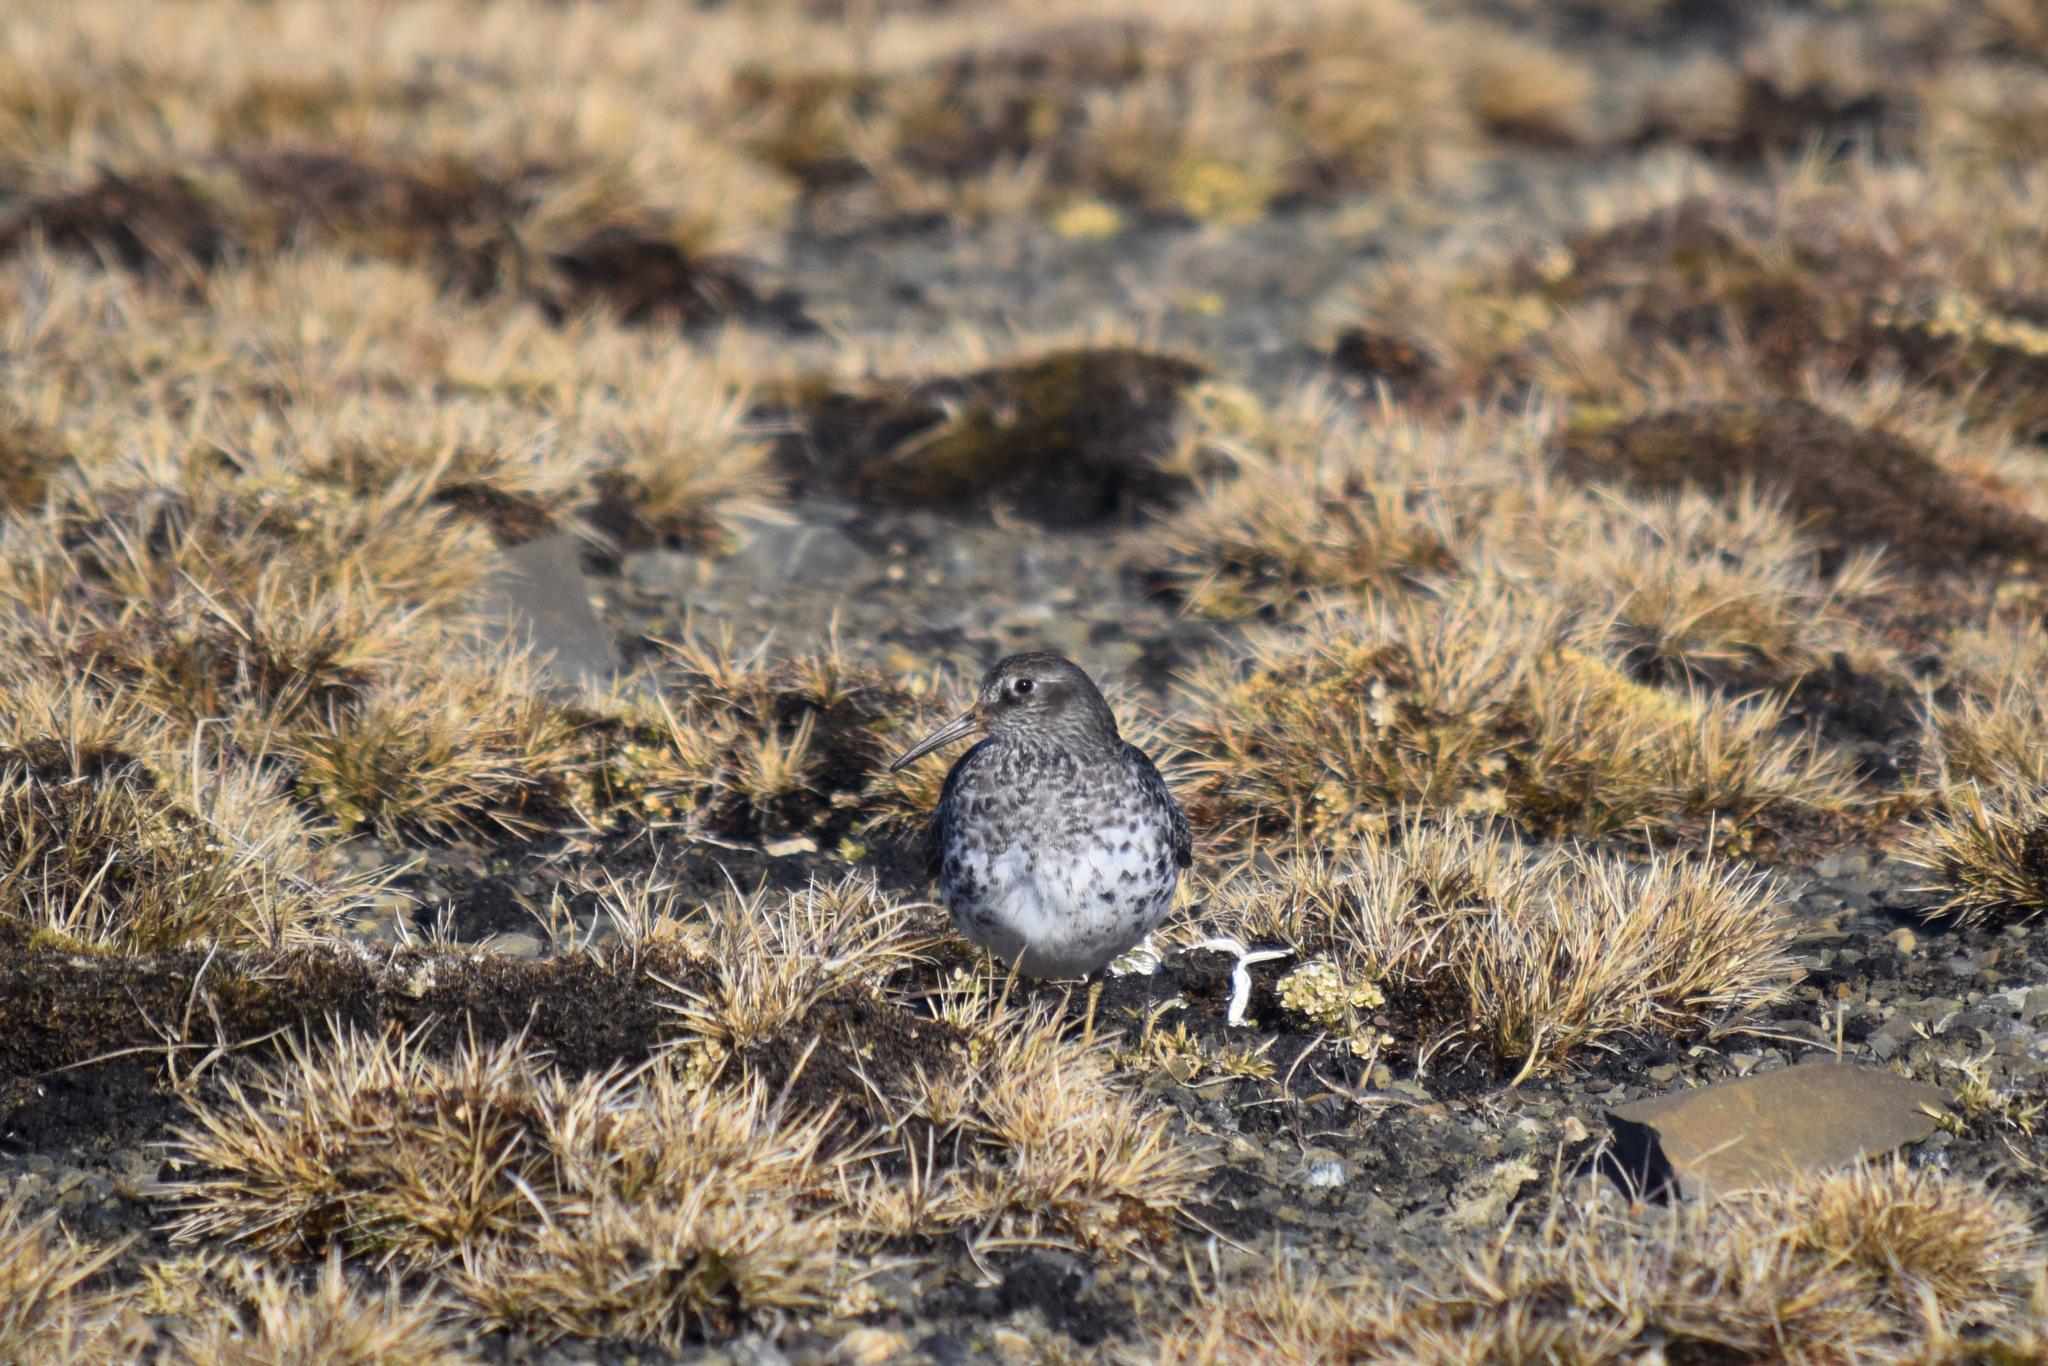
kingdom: Animalia
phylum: Chordata
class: Aves
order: Charadriiformes
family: Scolopacidae
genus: Calidris
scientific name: Calidris maritima
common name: Purple sandpiper
